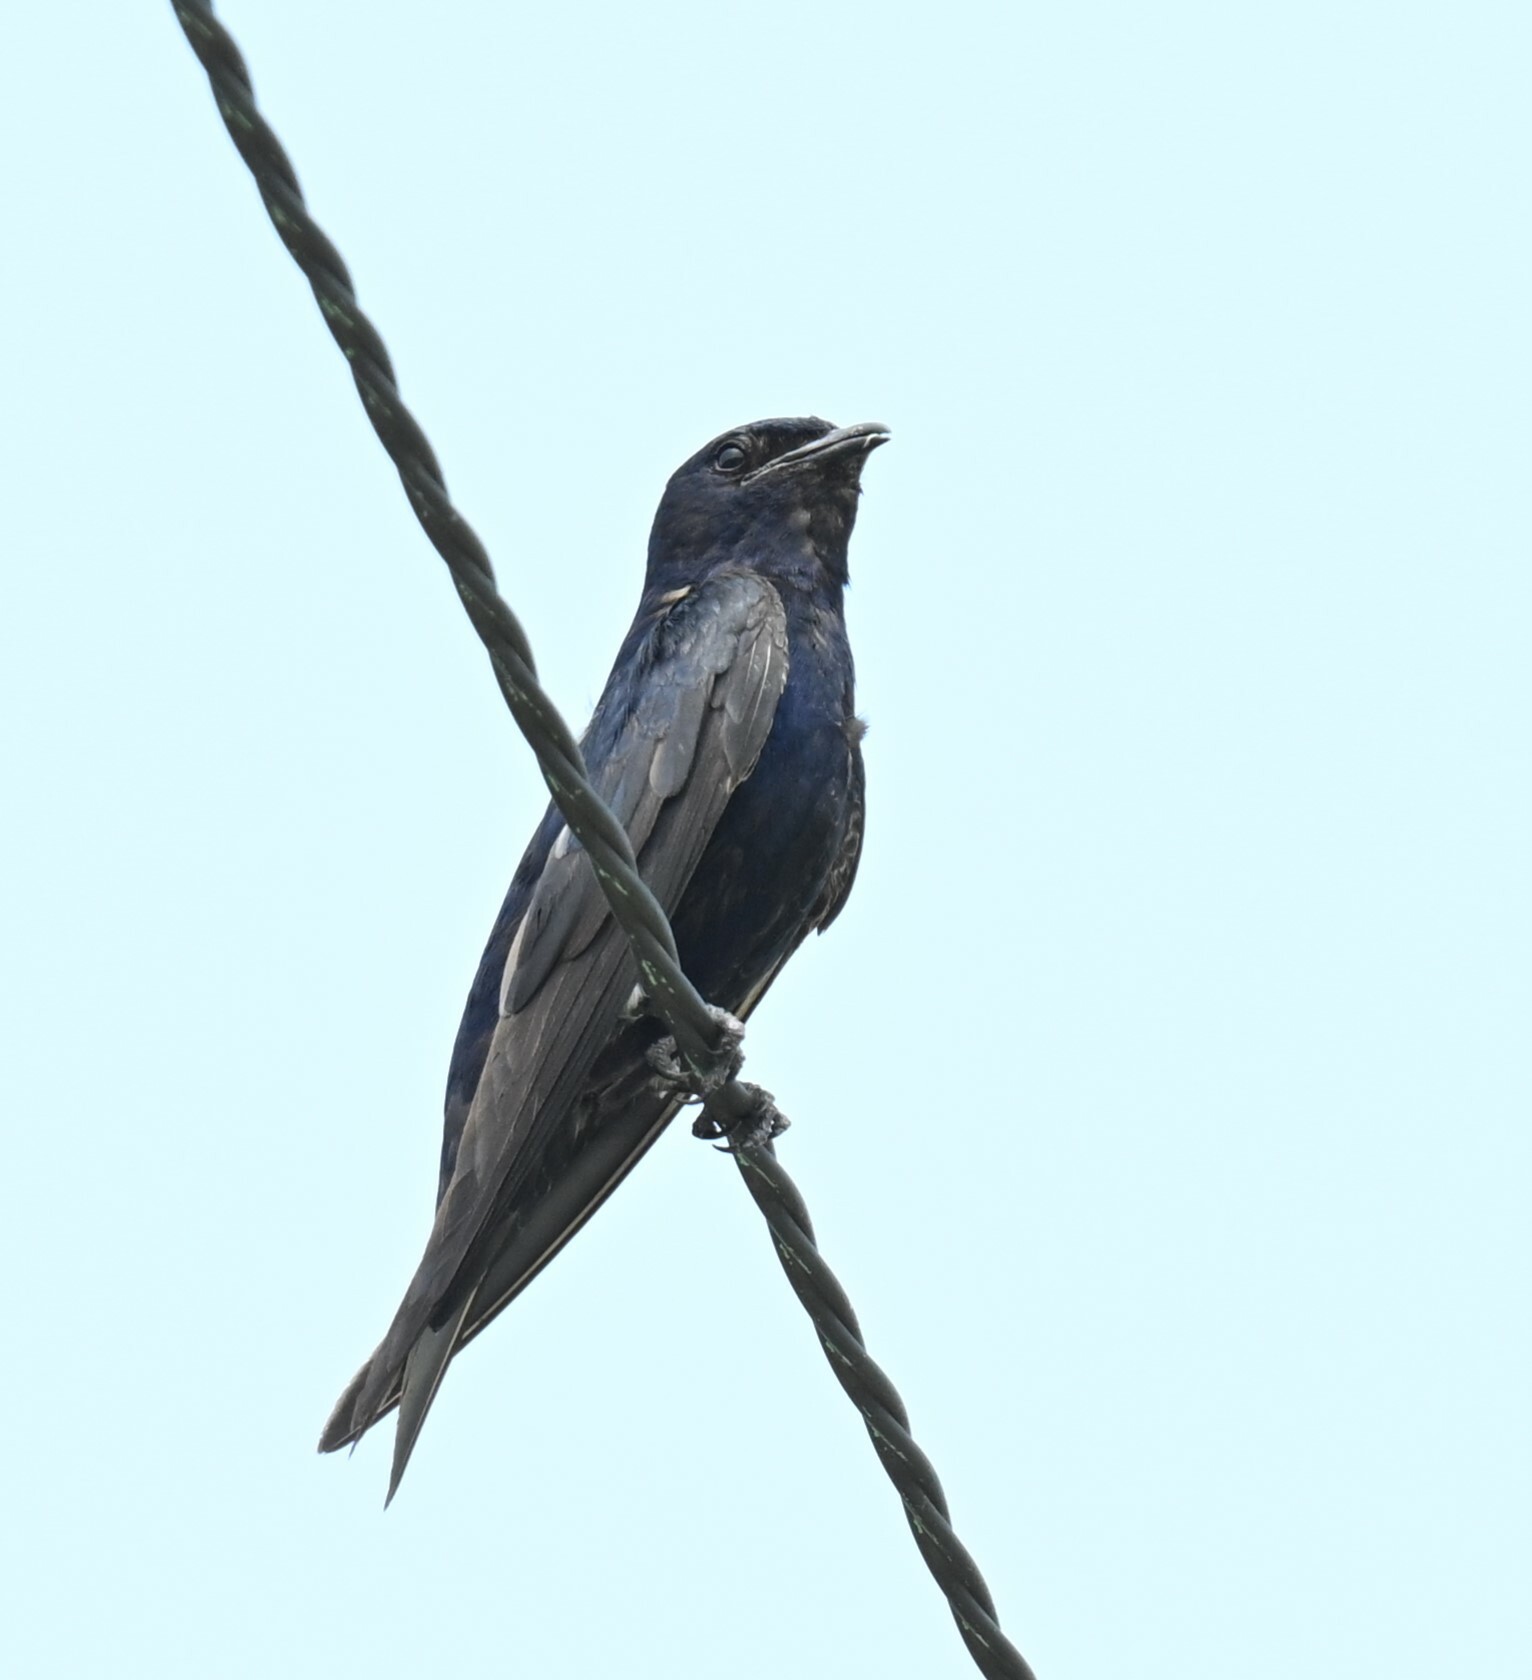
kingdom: Animalia
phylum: Chordata
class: Aves
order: Passeriformes
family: Hirundinidae
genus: Progne
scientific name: Progne subis
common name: Purple martin
